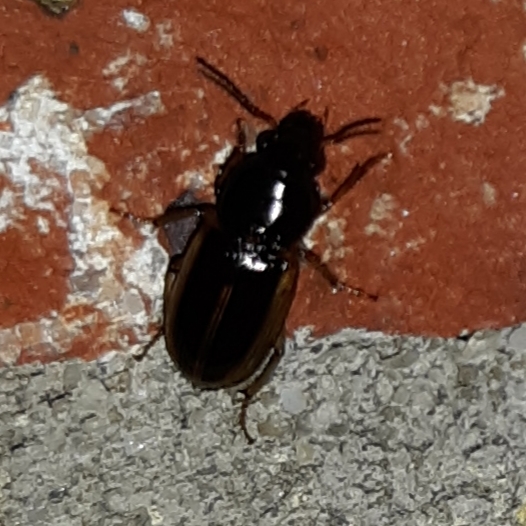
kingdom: Animalia
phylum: Arthropoda
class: Insecta
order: Coleoptera
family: Carabidae
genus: Stenolophus
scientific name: Stenolophus infuscatus
